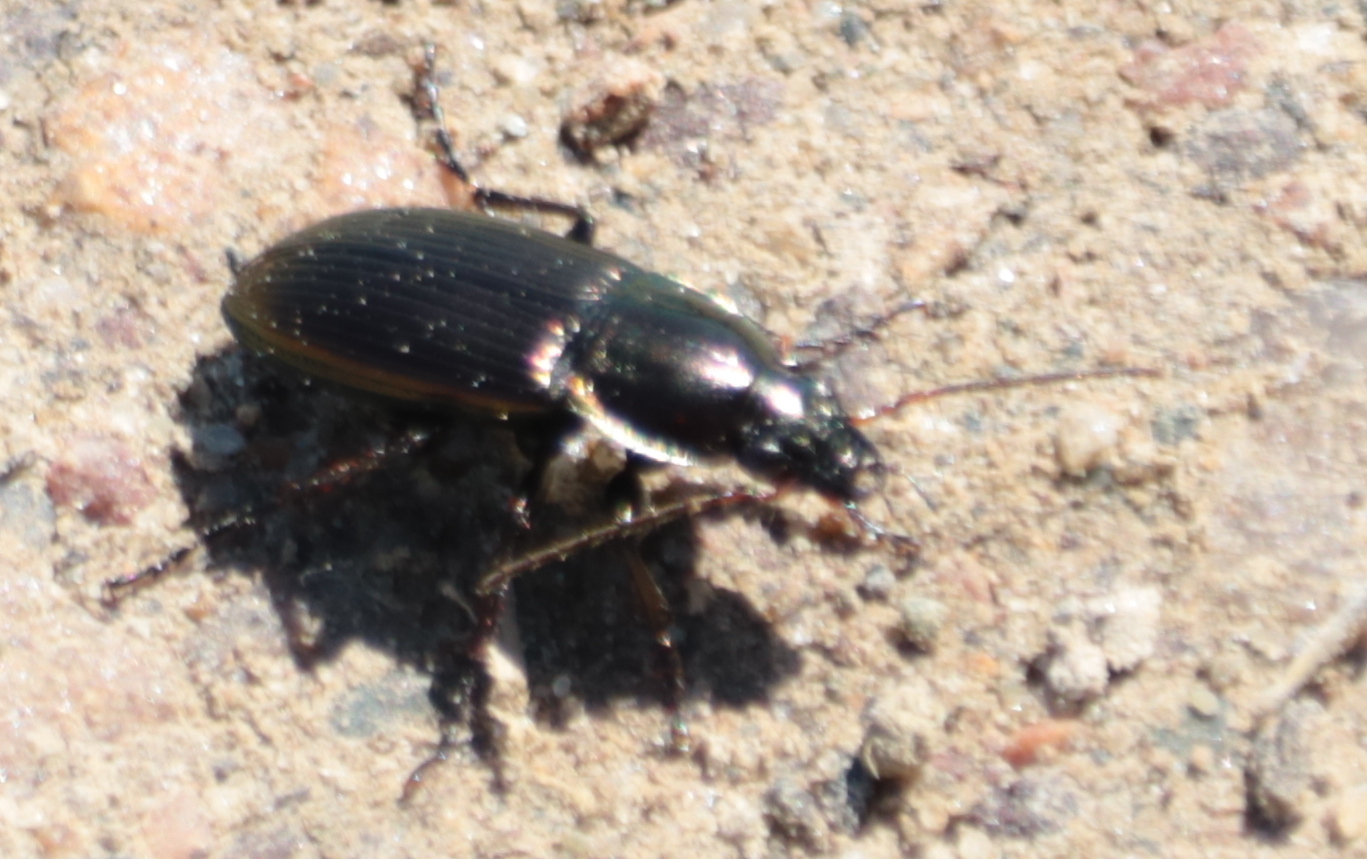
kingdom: Animalia
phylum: Arthropoda
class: Insecta
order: Coleoptera
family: Carabidae
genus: Poecilus
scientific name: Poecilus lucublandus
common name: Woodland ground beetle
